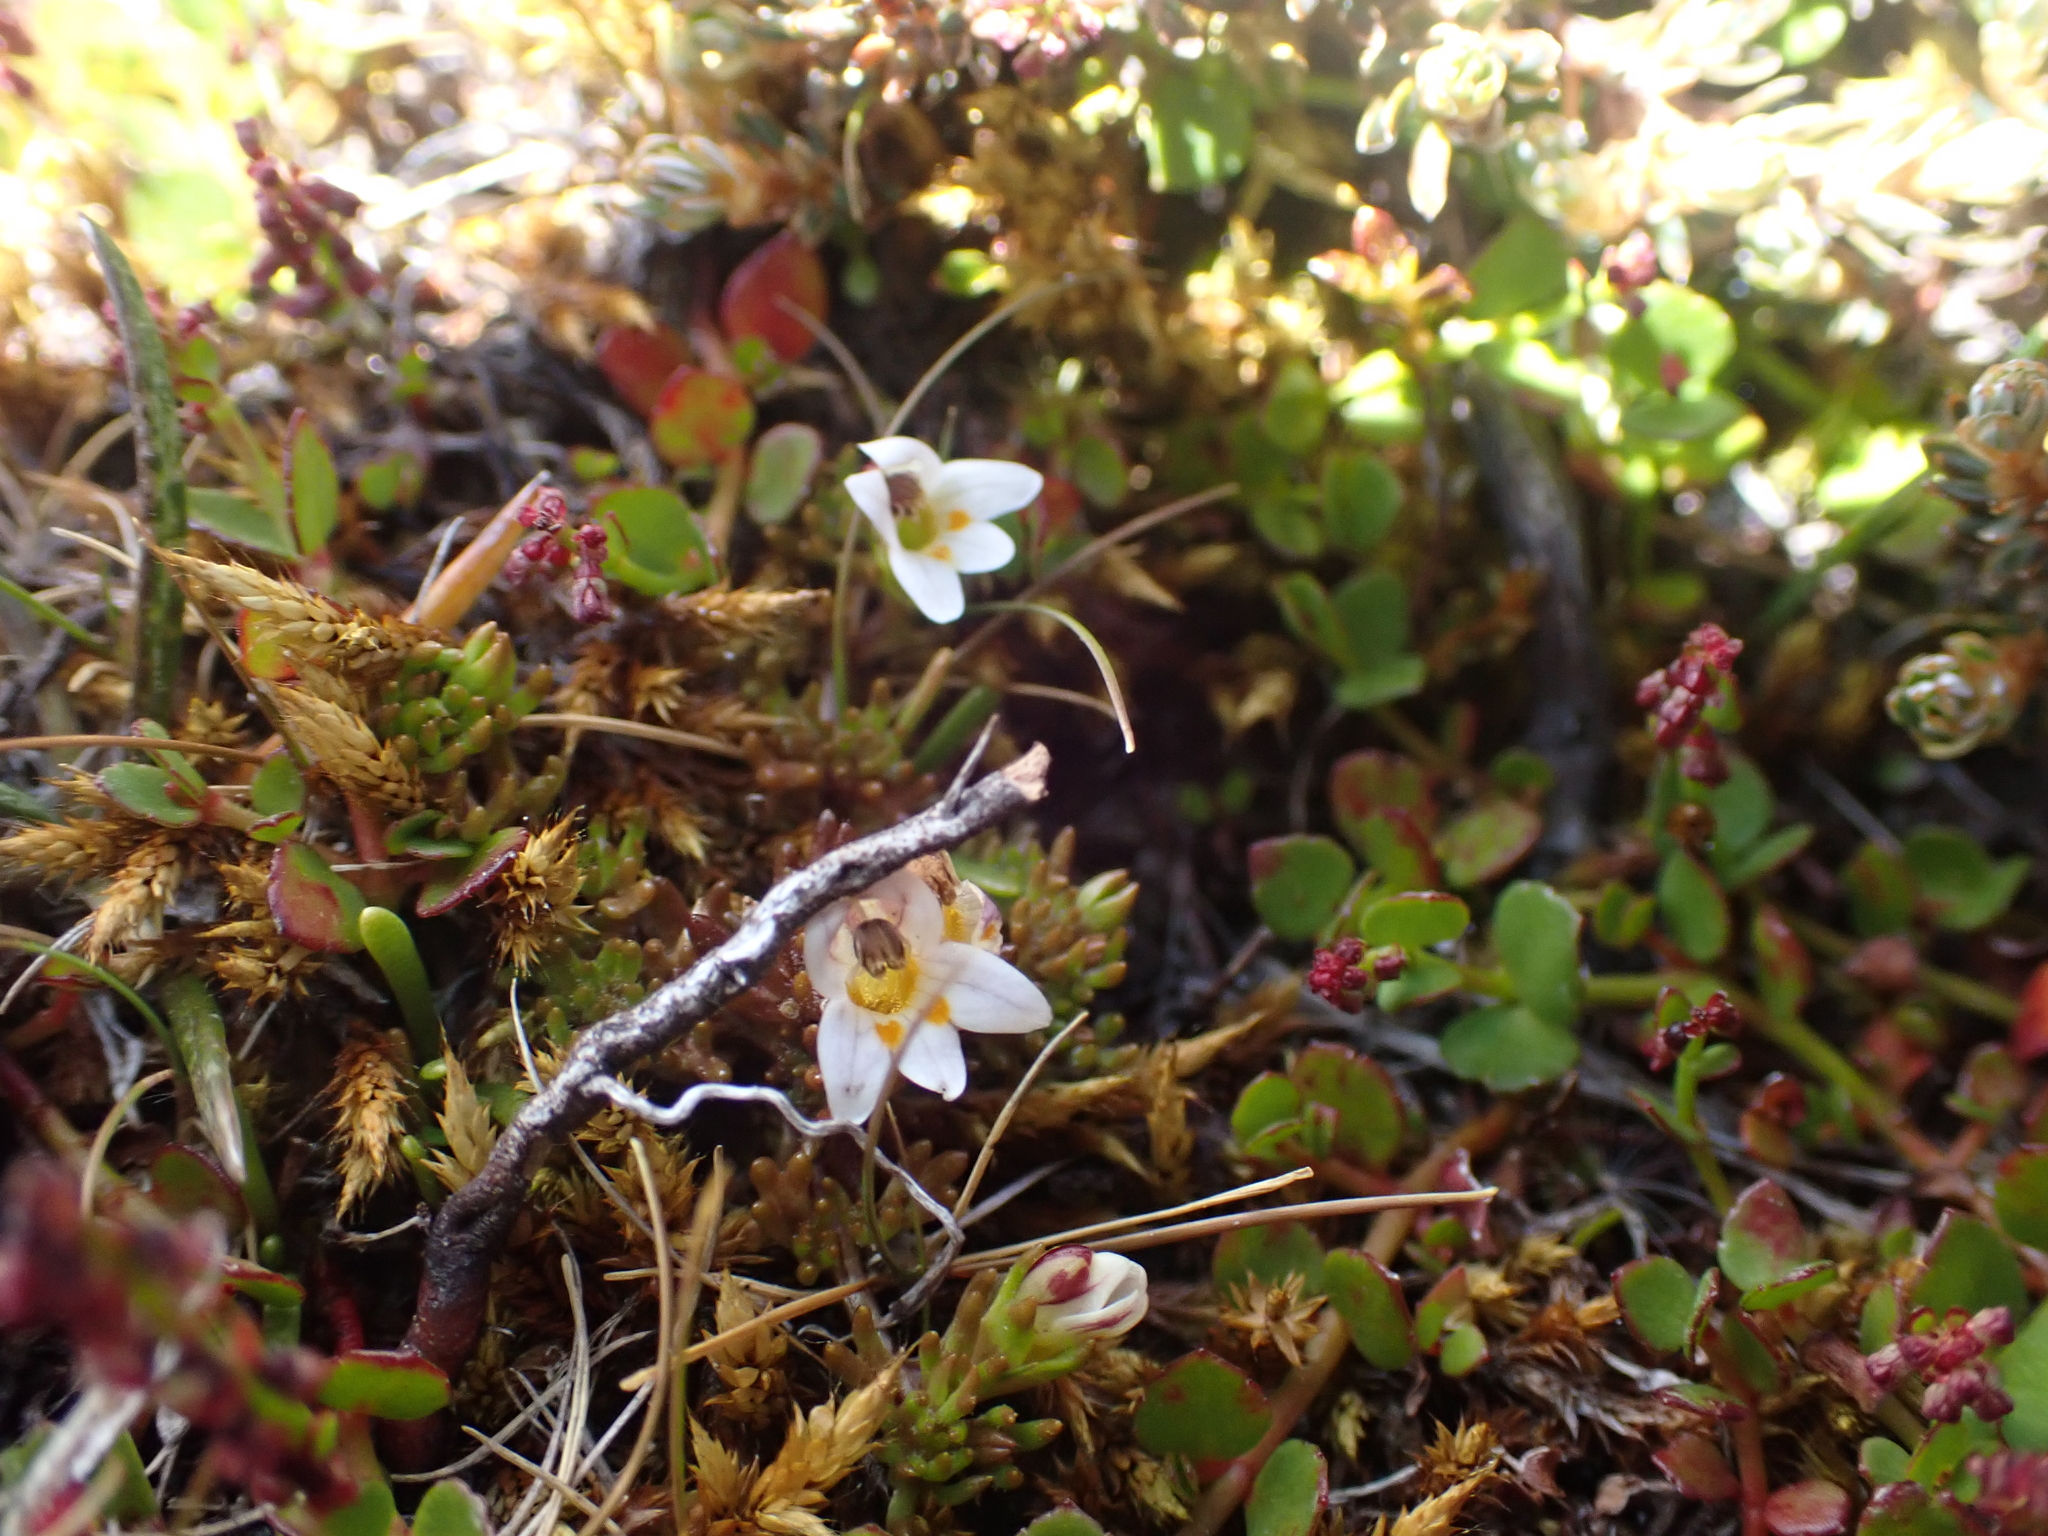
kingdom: Plantae
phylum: Tracheophyta
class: Magnoliopsida
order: Lamiales
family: Orobanchaceae
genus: Euphrasia
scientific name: Euphrasia dyeri
